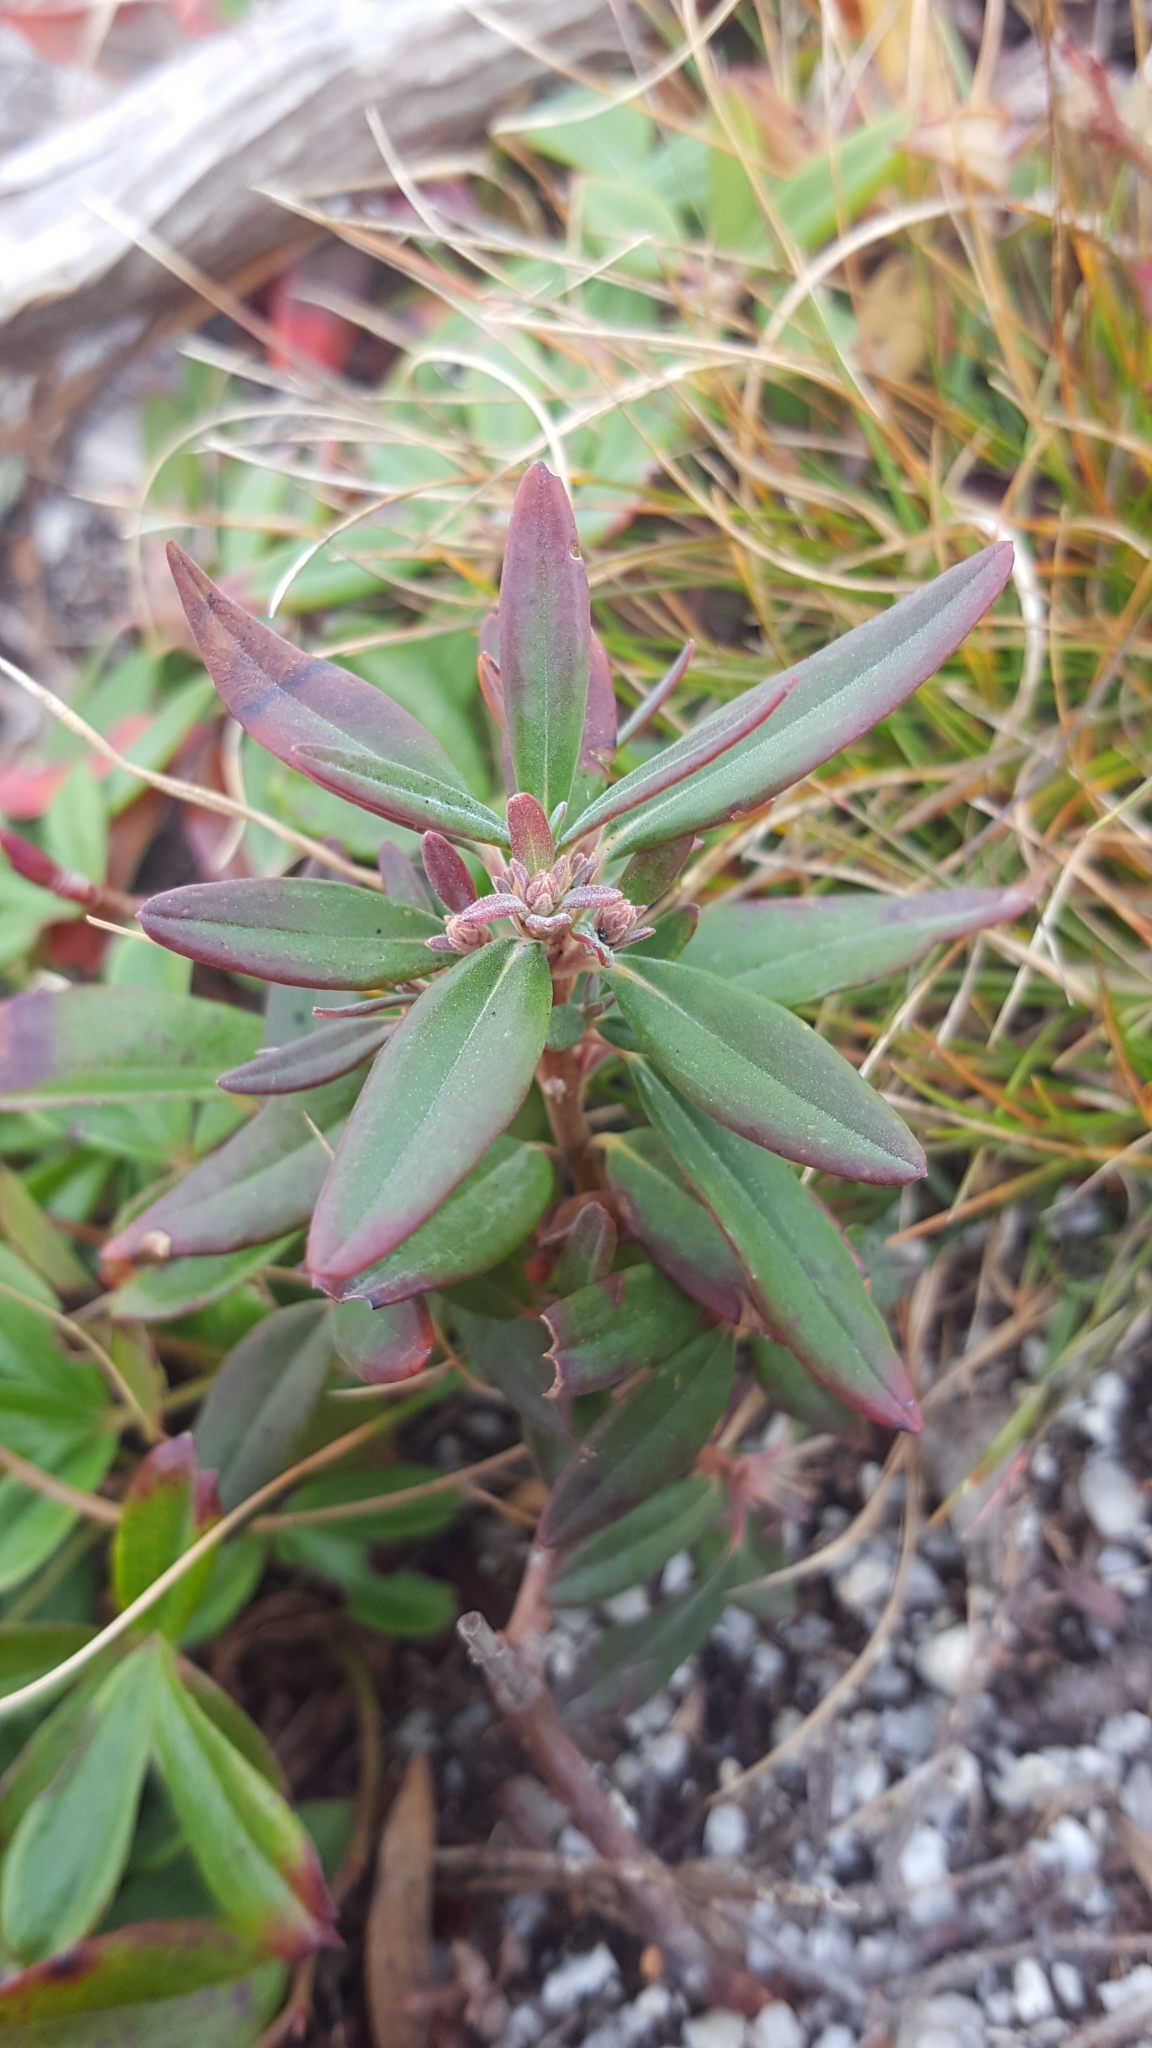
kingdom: Plantae
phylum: Tracheophyta
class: Magnoliopsida
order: Ericales
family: Ericaceae
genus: Rhododendron
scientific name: Rhododendron groenlandicum
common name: Bog labrador tea
